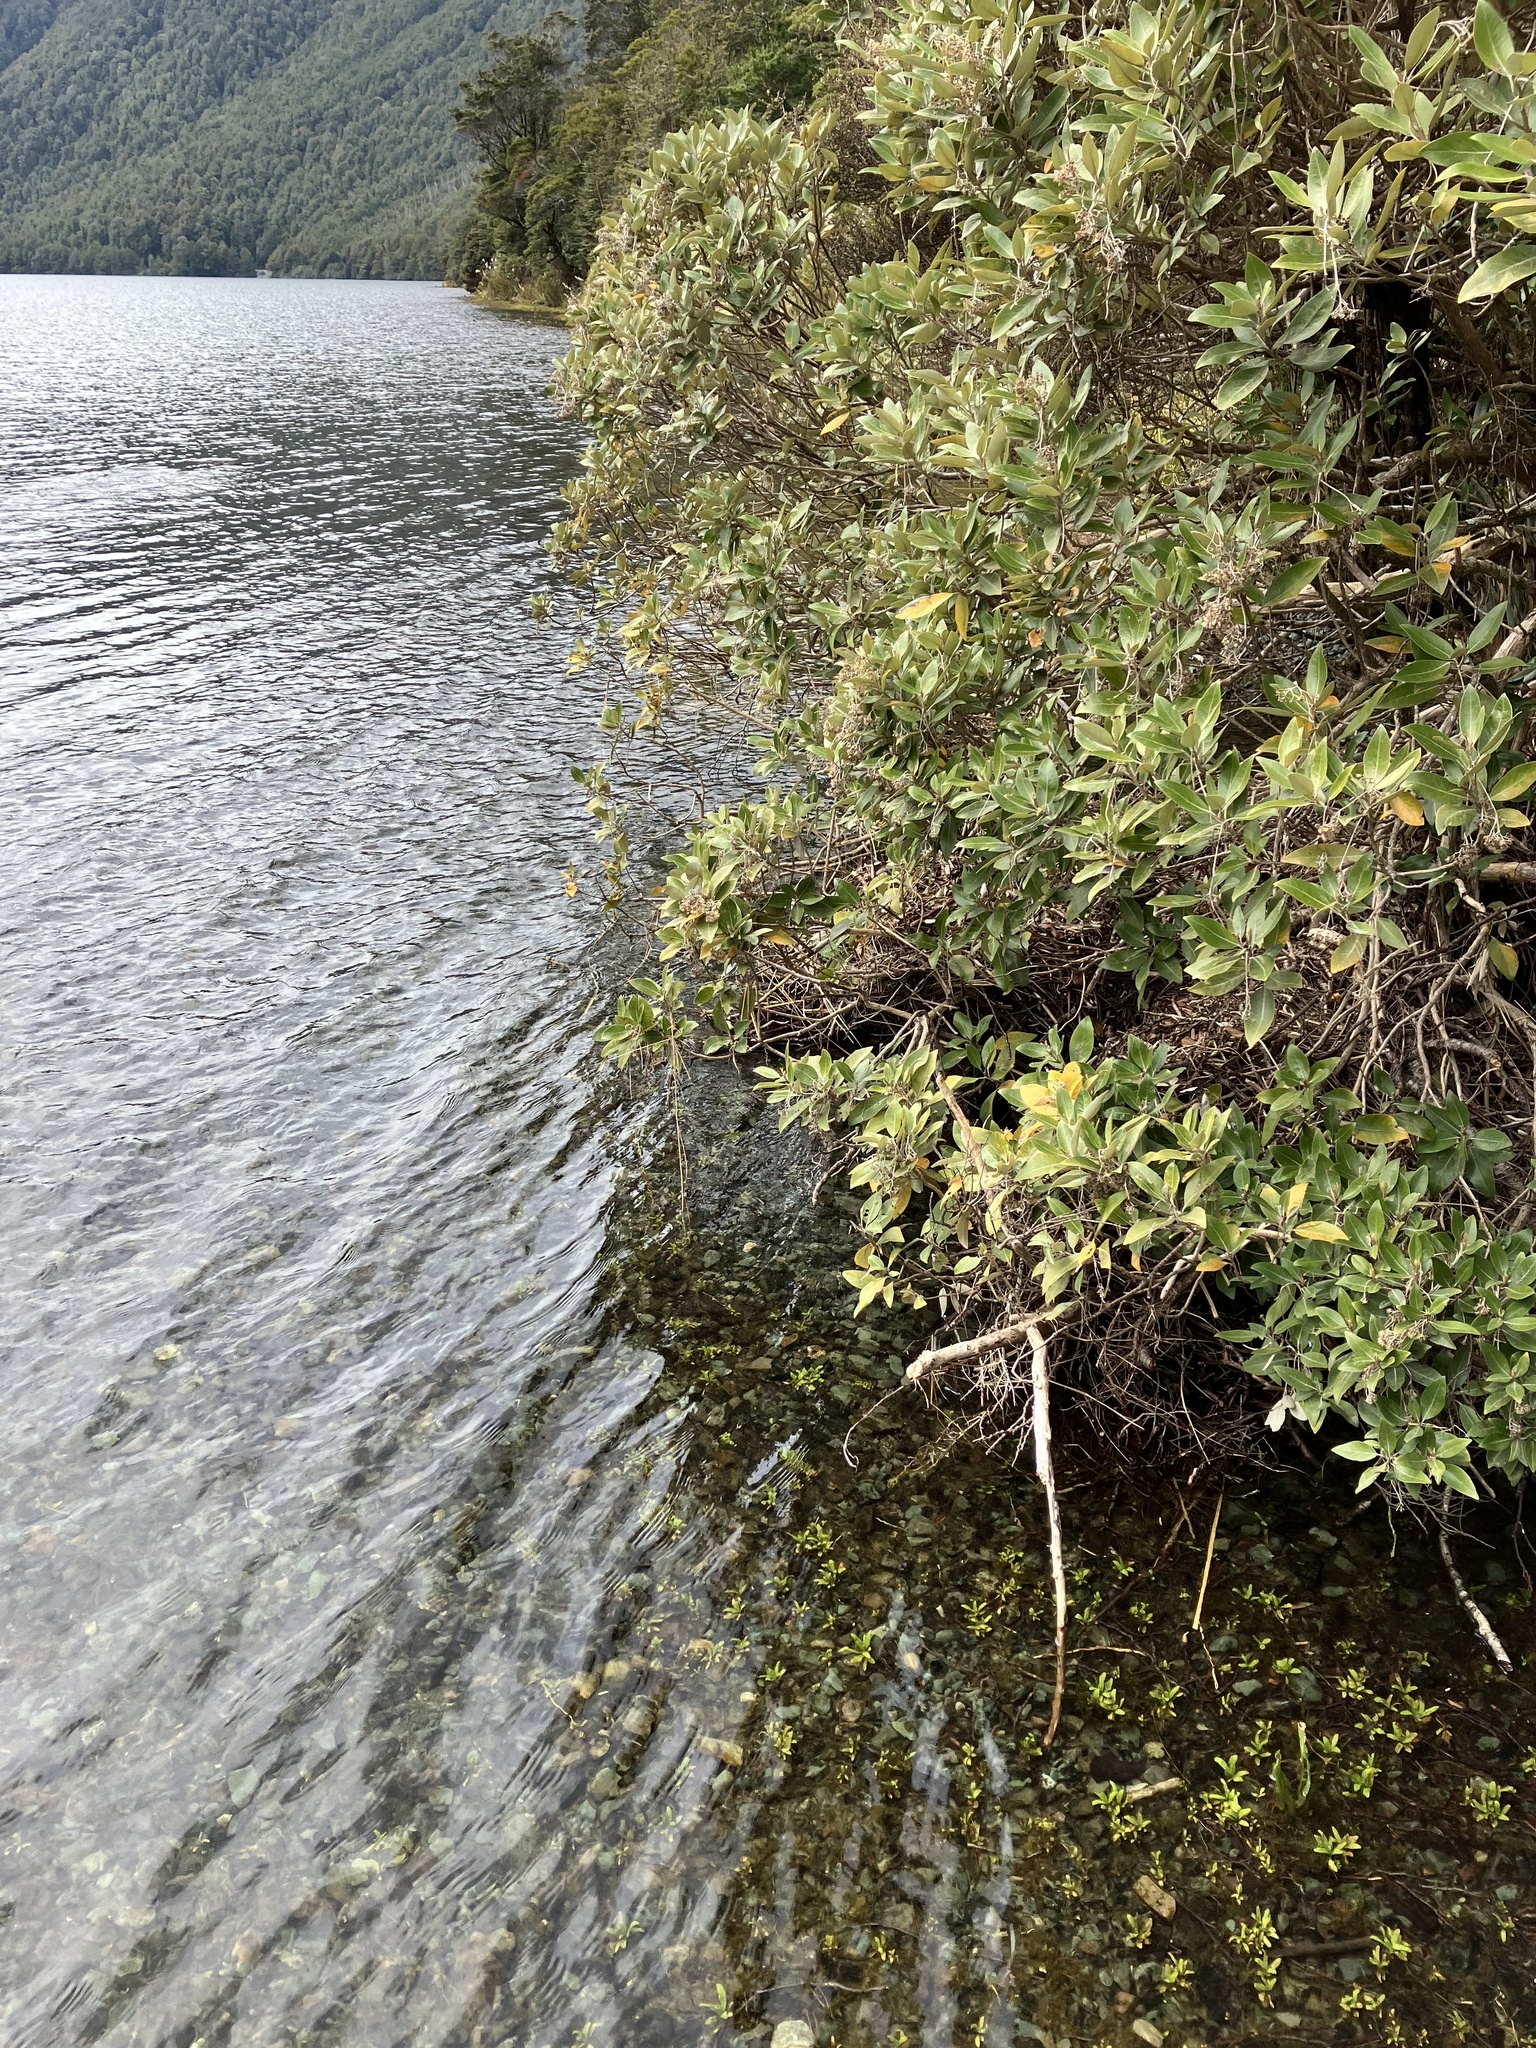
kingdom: Plantae
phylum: Tracheophyta
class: Magnoliopsida
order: Asterales
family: Asteraceae
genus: Olearia
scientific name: Olearia avicenniifolia
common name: Mangrove-leaf daisybush
